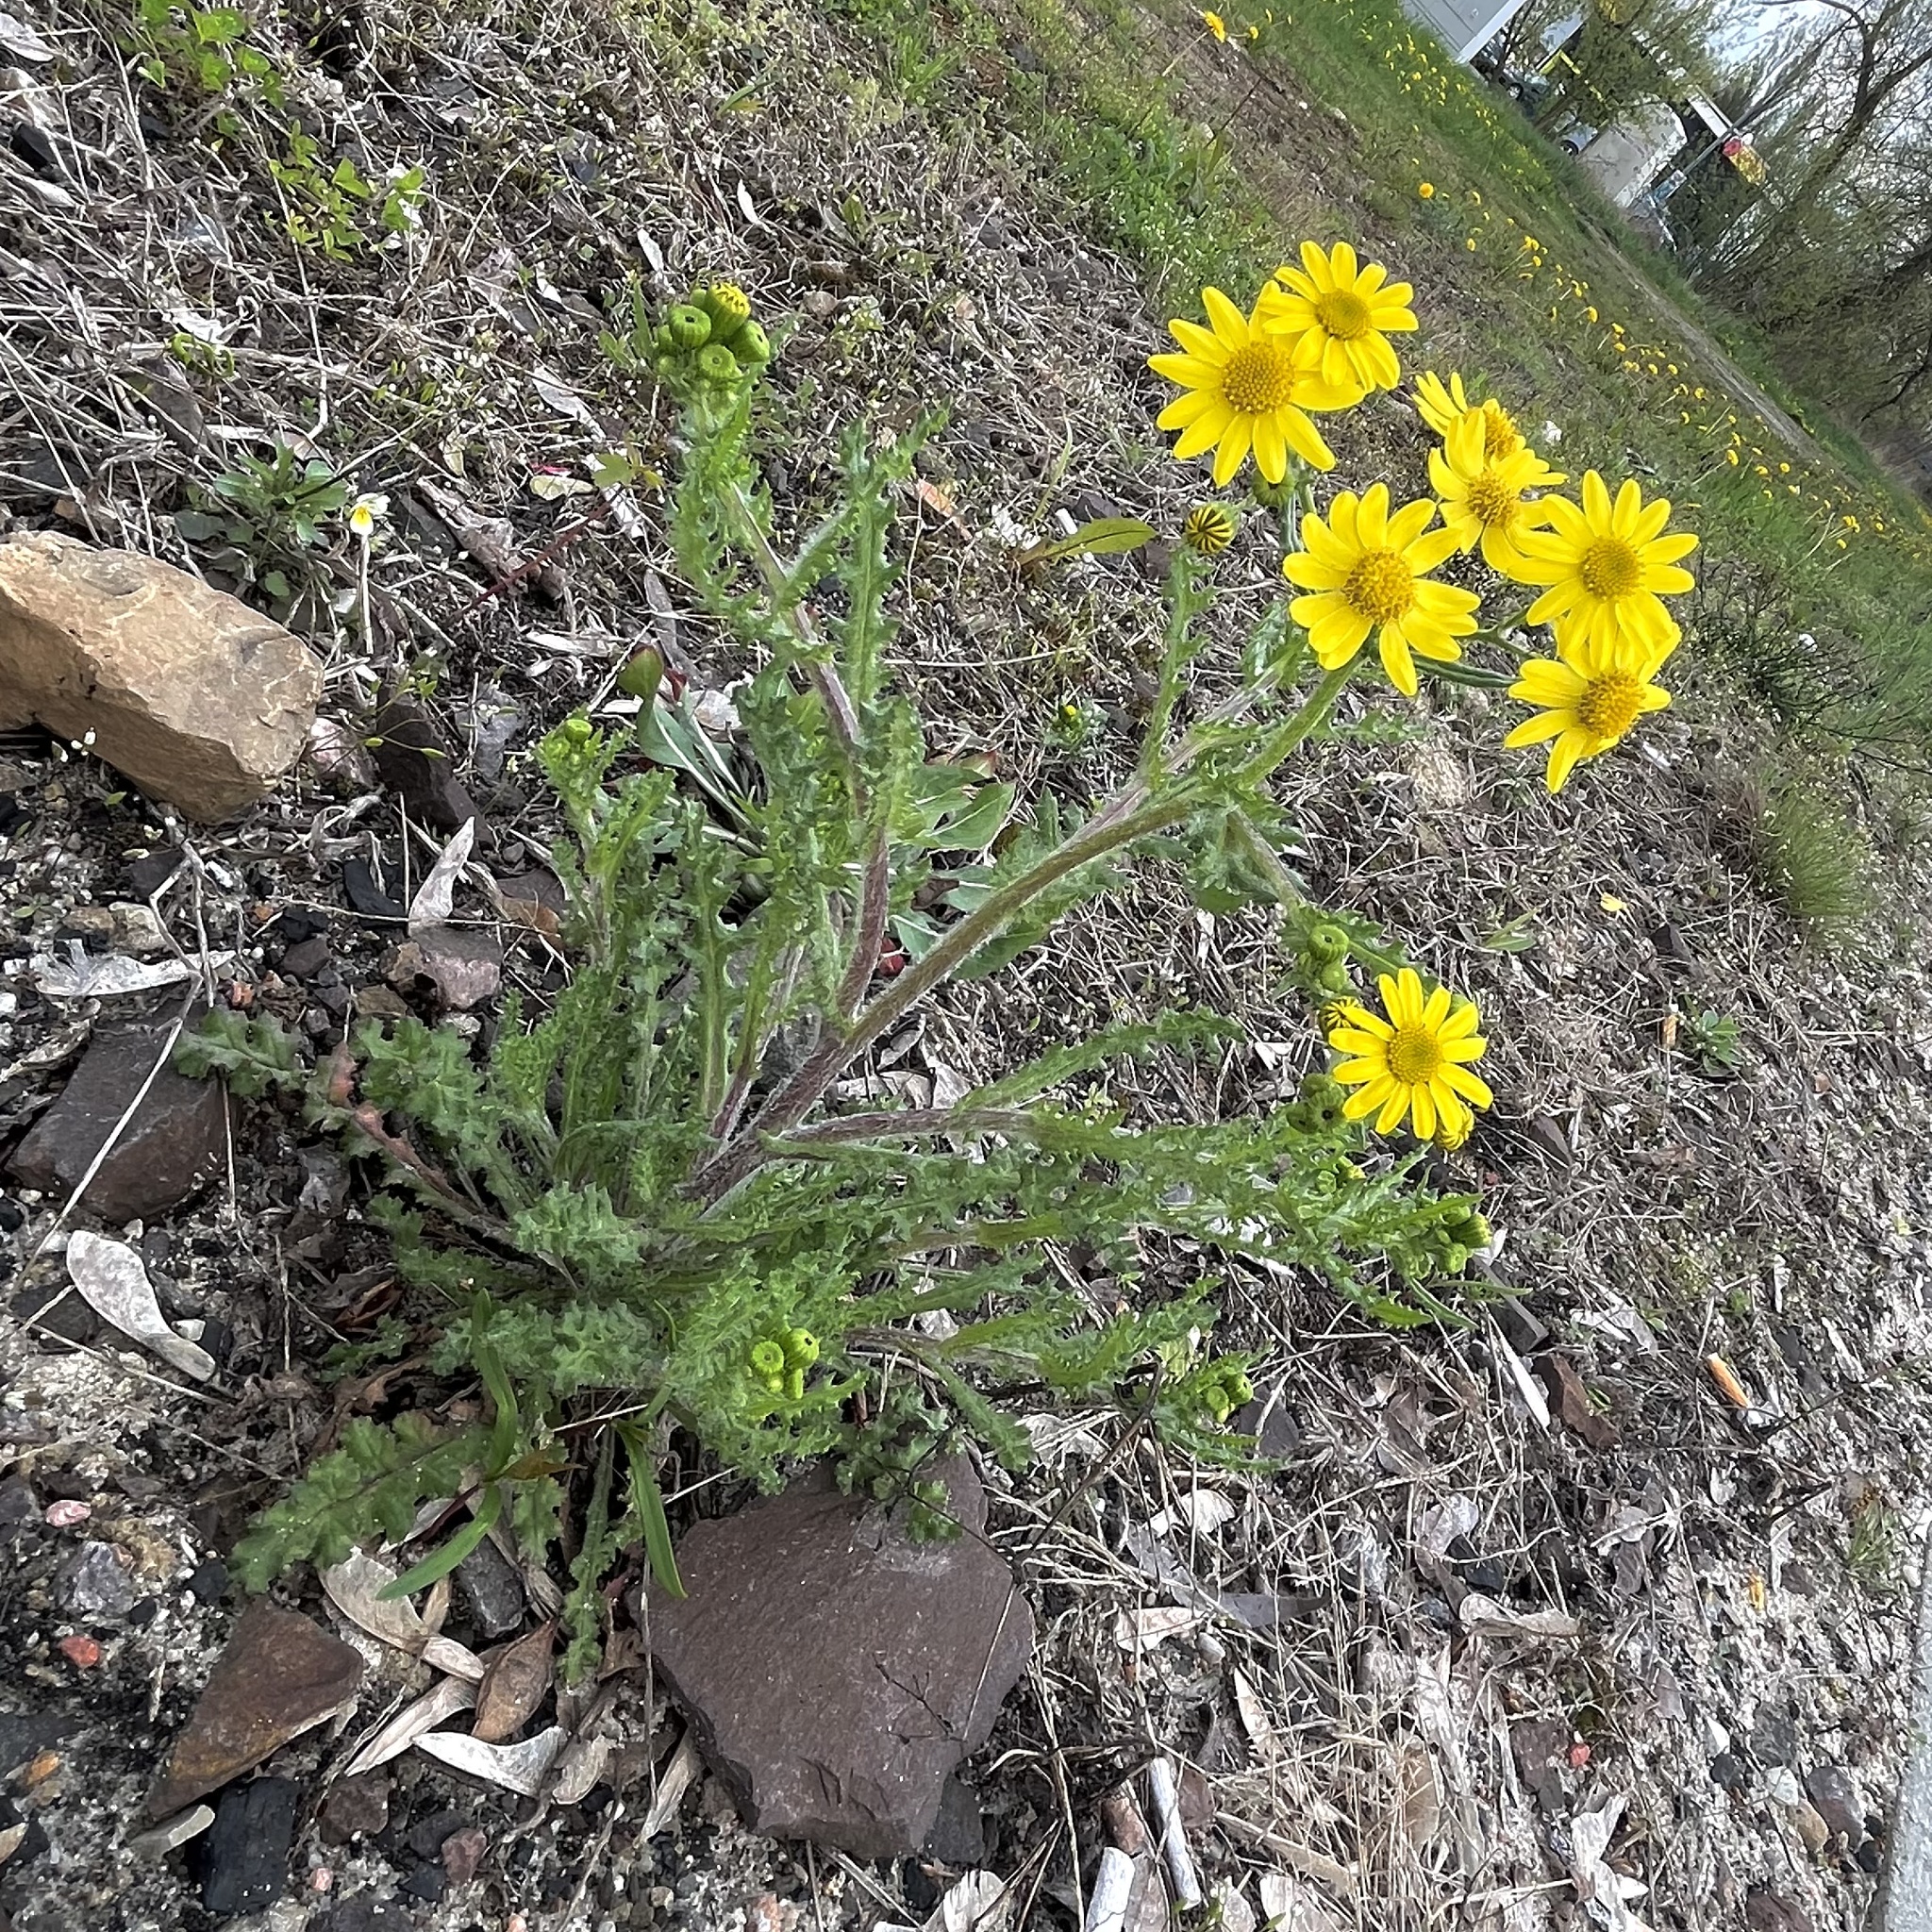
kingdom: Plantae
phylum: Tracheophyta
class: Magnoliopsida
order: Asterales
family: Asteraceae
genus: Senecio
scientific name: Senecio vernalis
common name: Eastern groundsel
